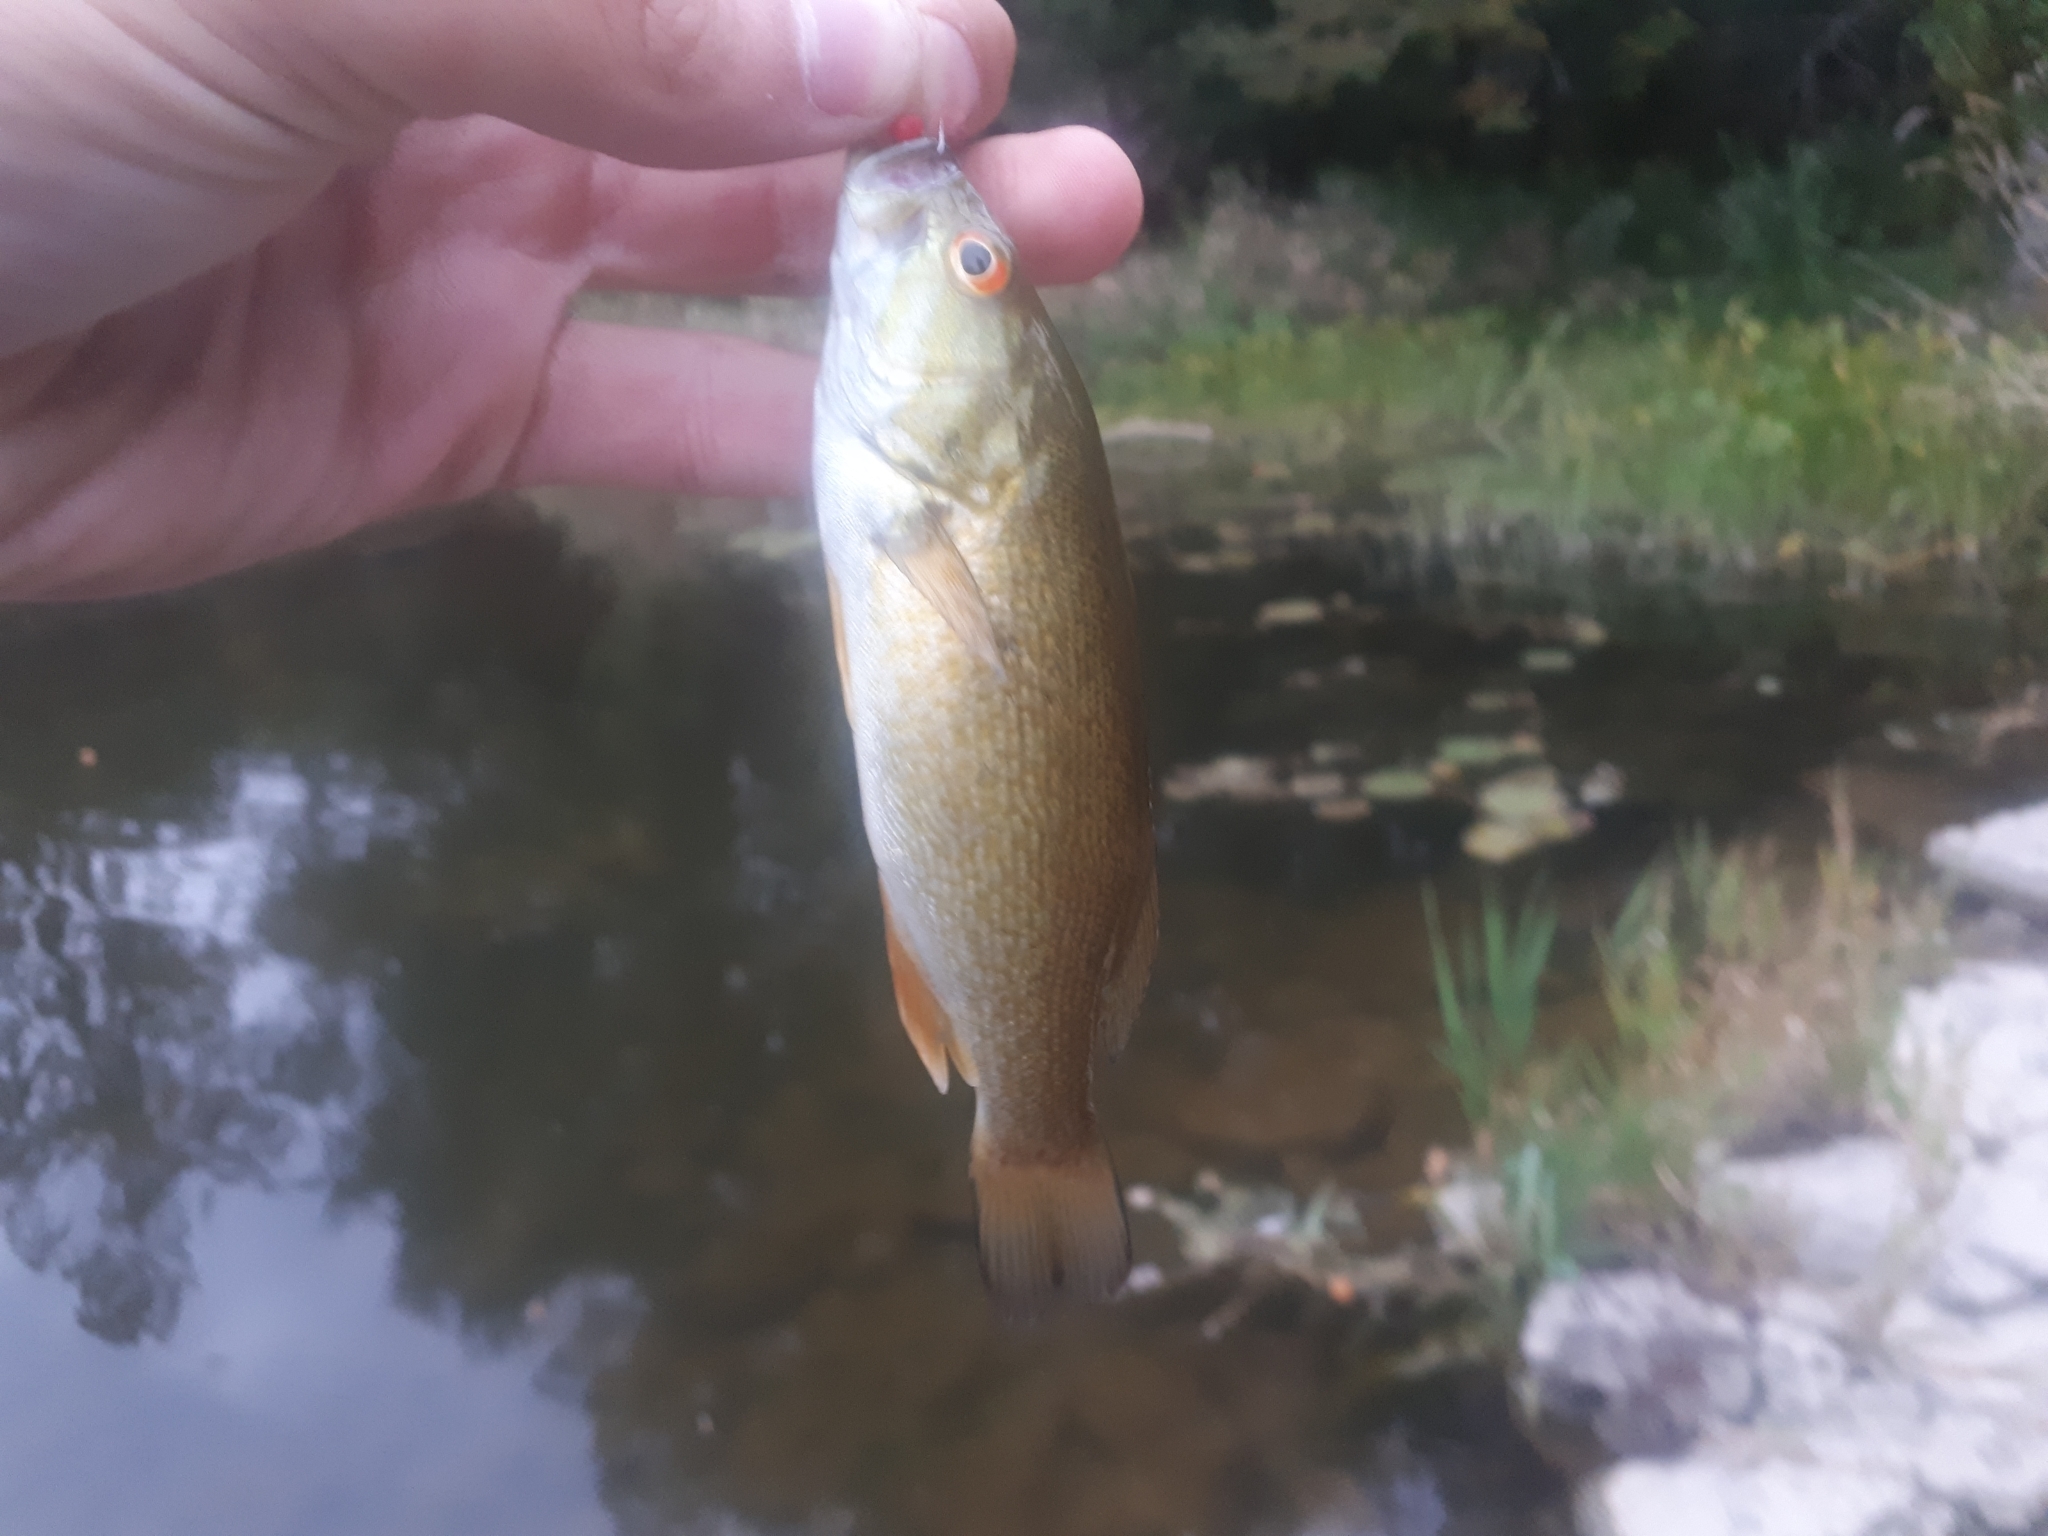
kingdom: Animalia
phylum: Chordata
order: Perciformes
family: Centrarchidae
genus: Micropterus
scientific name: Micropterus dolomieu
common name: Smallmouth bass
